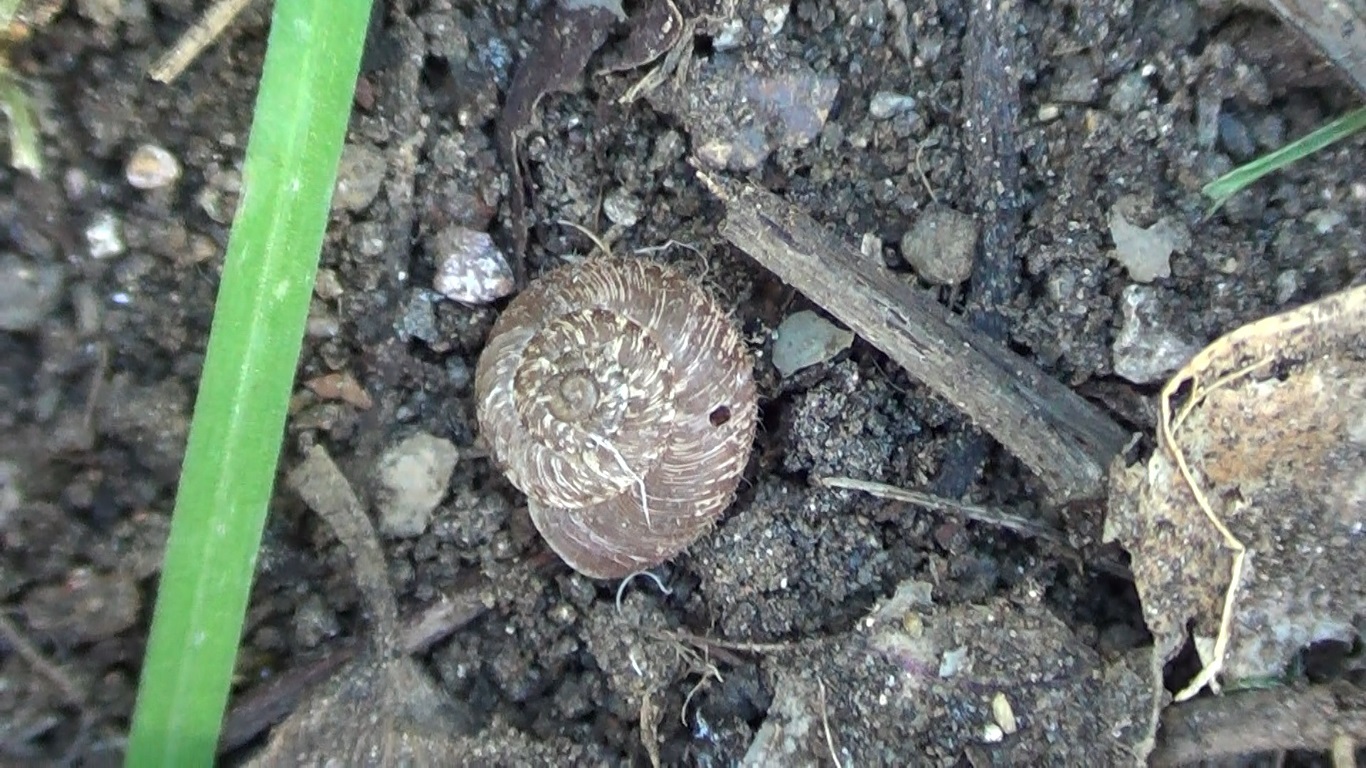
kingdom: Animalia
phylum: Mollusca
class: Gastropoda
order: Stylommatophora
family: Geomitridae
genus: Xerotricha
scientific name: Xerotricha conspurcata
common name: Snail
